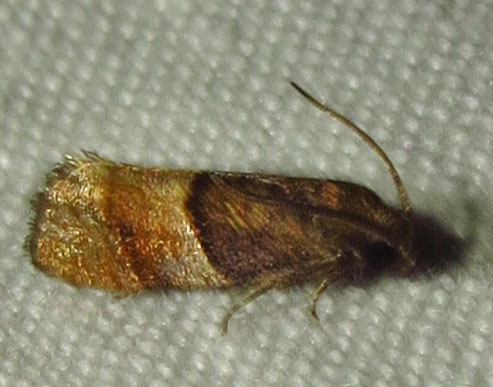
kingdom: Animalia
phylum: Arthropoda
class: Insecta
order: Lepidoptera
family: Tortricidae
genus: Larisa
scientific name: Larisa subsolana
